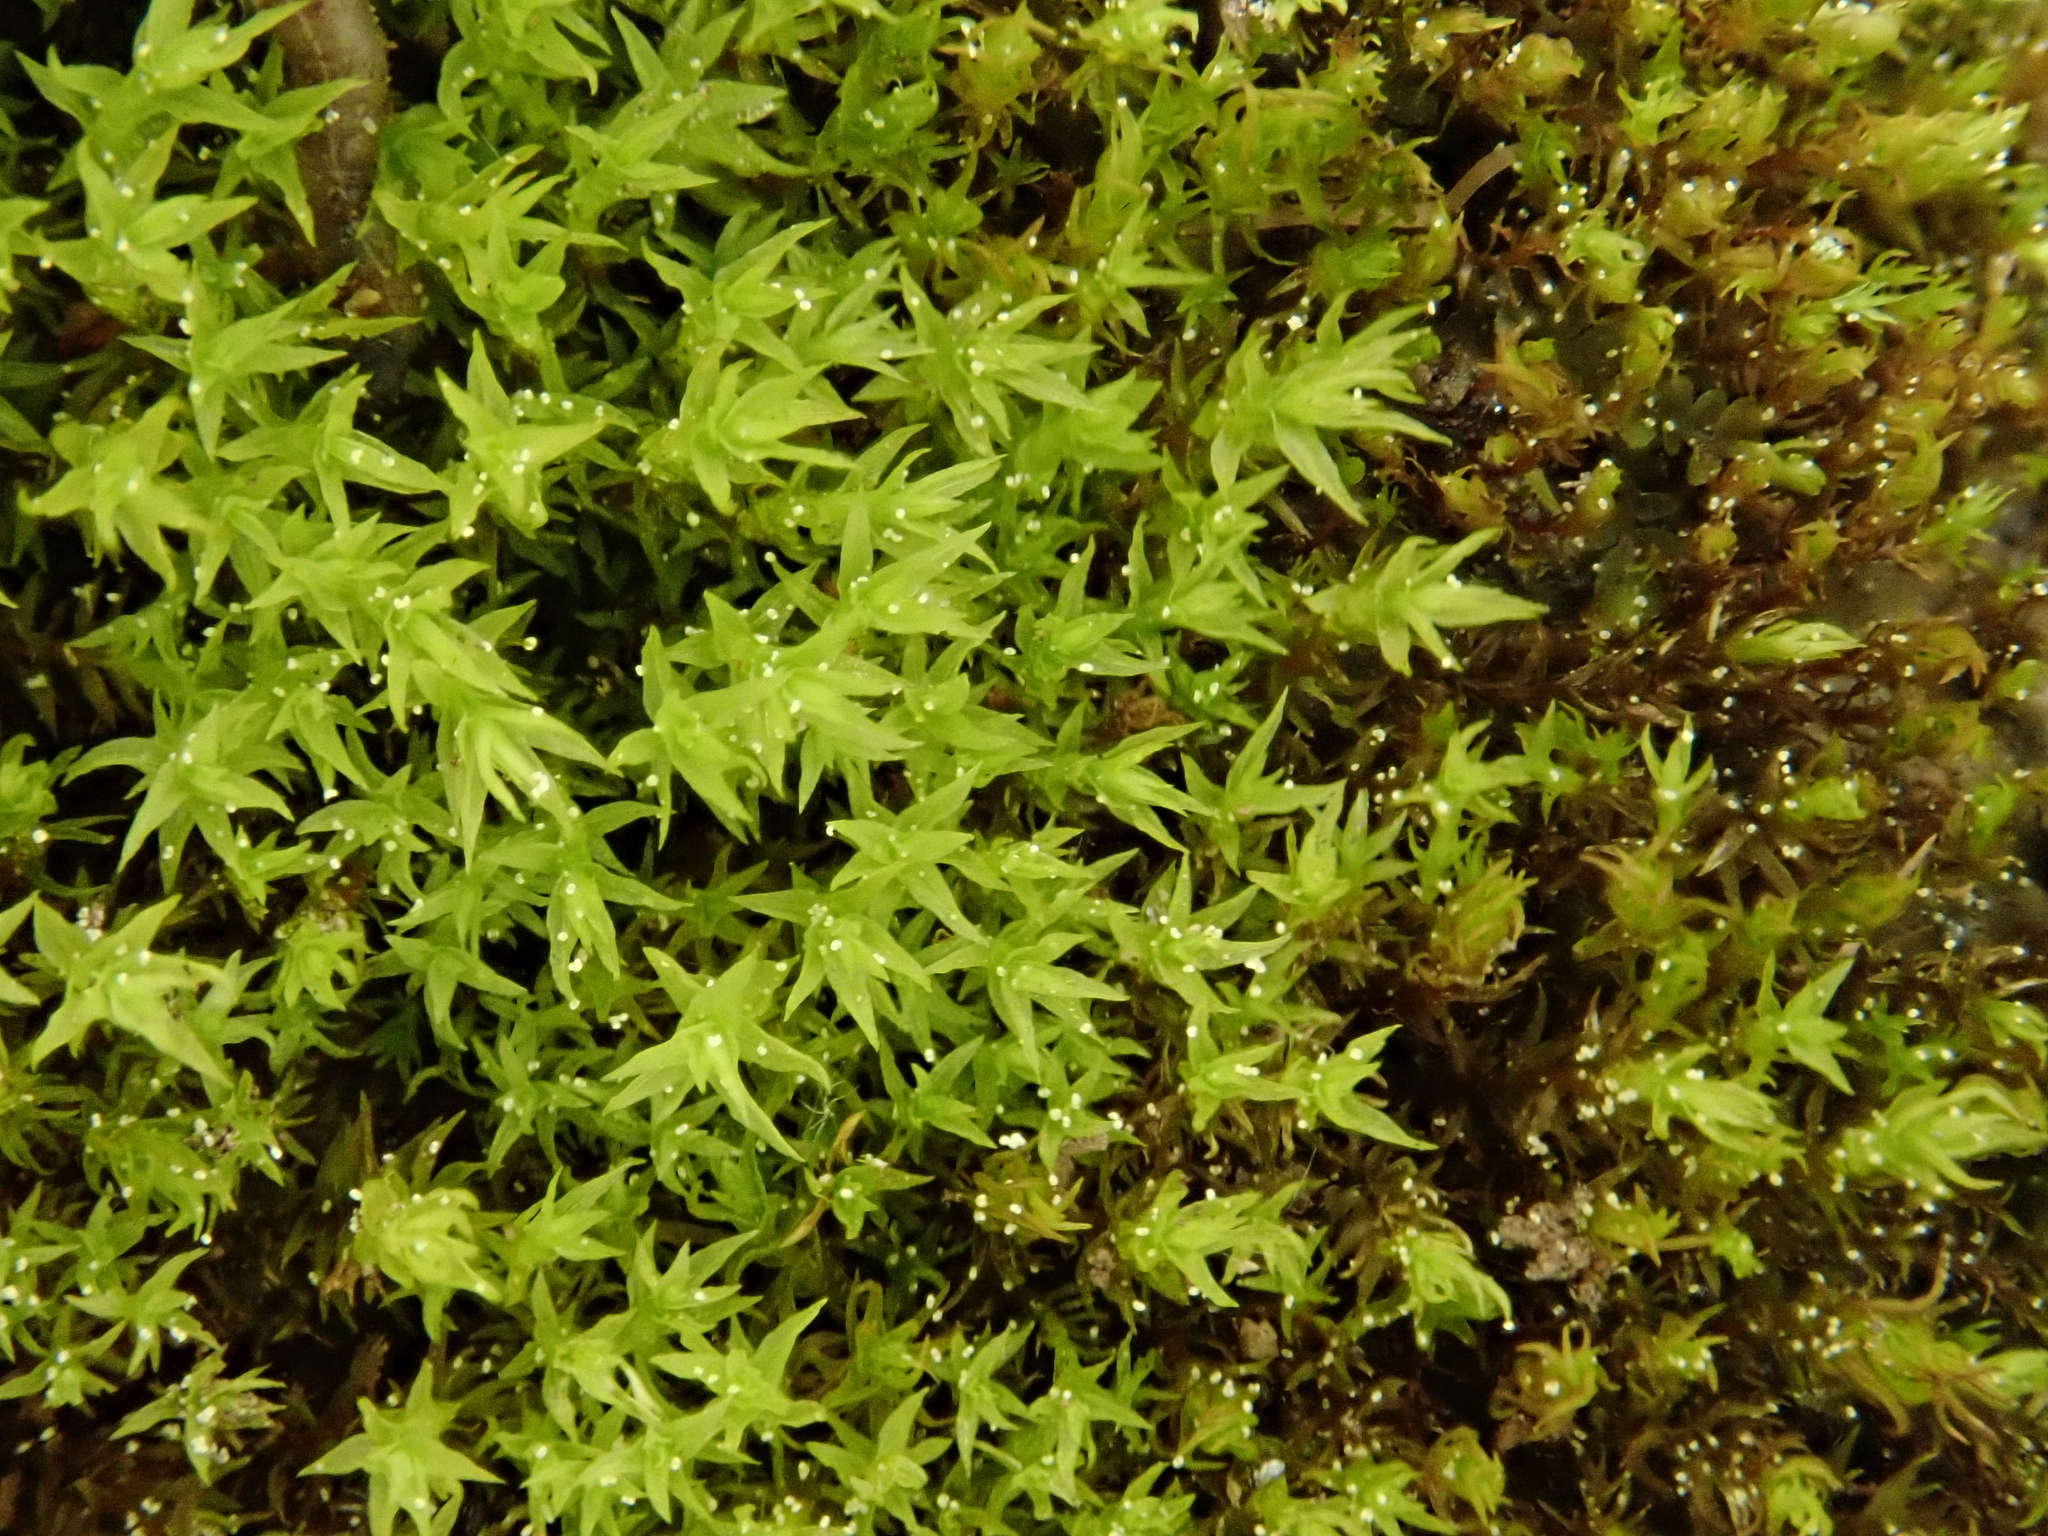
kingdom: Plantae
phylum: Bryophyta
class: Bryopsida
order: Dicranales
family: Aongstroemiaceae
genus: Dichodontium
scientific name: Dichodontium pellucidum
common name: Transparent fork moss
